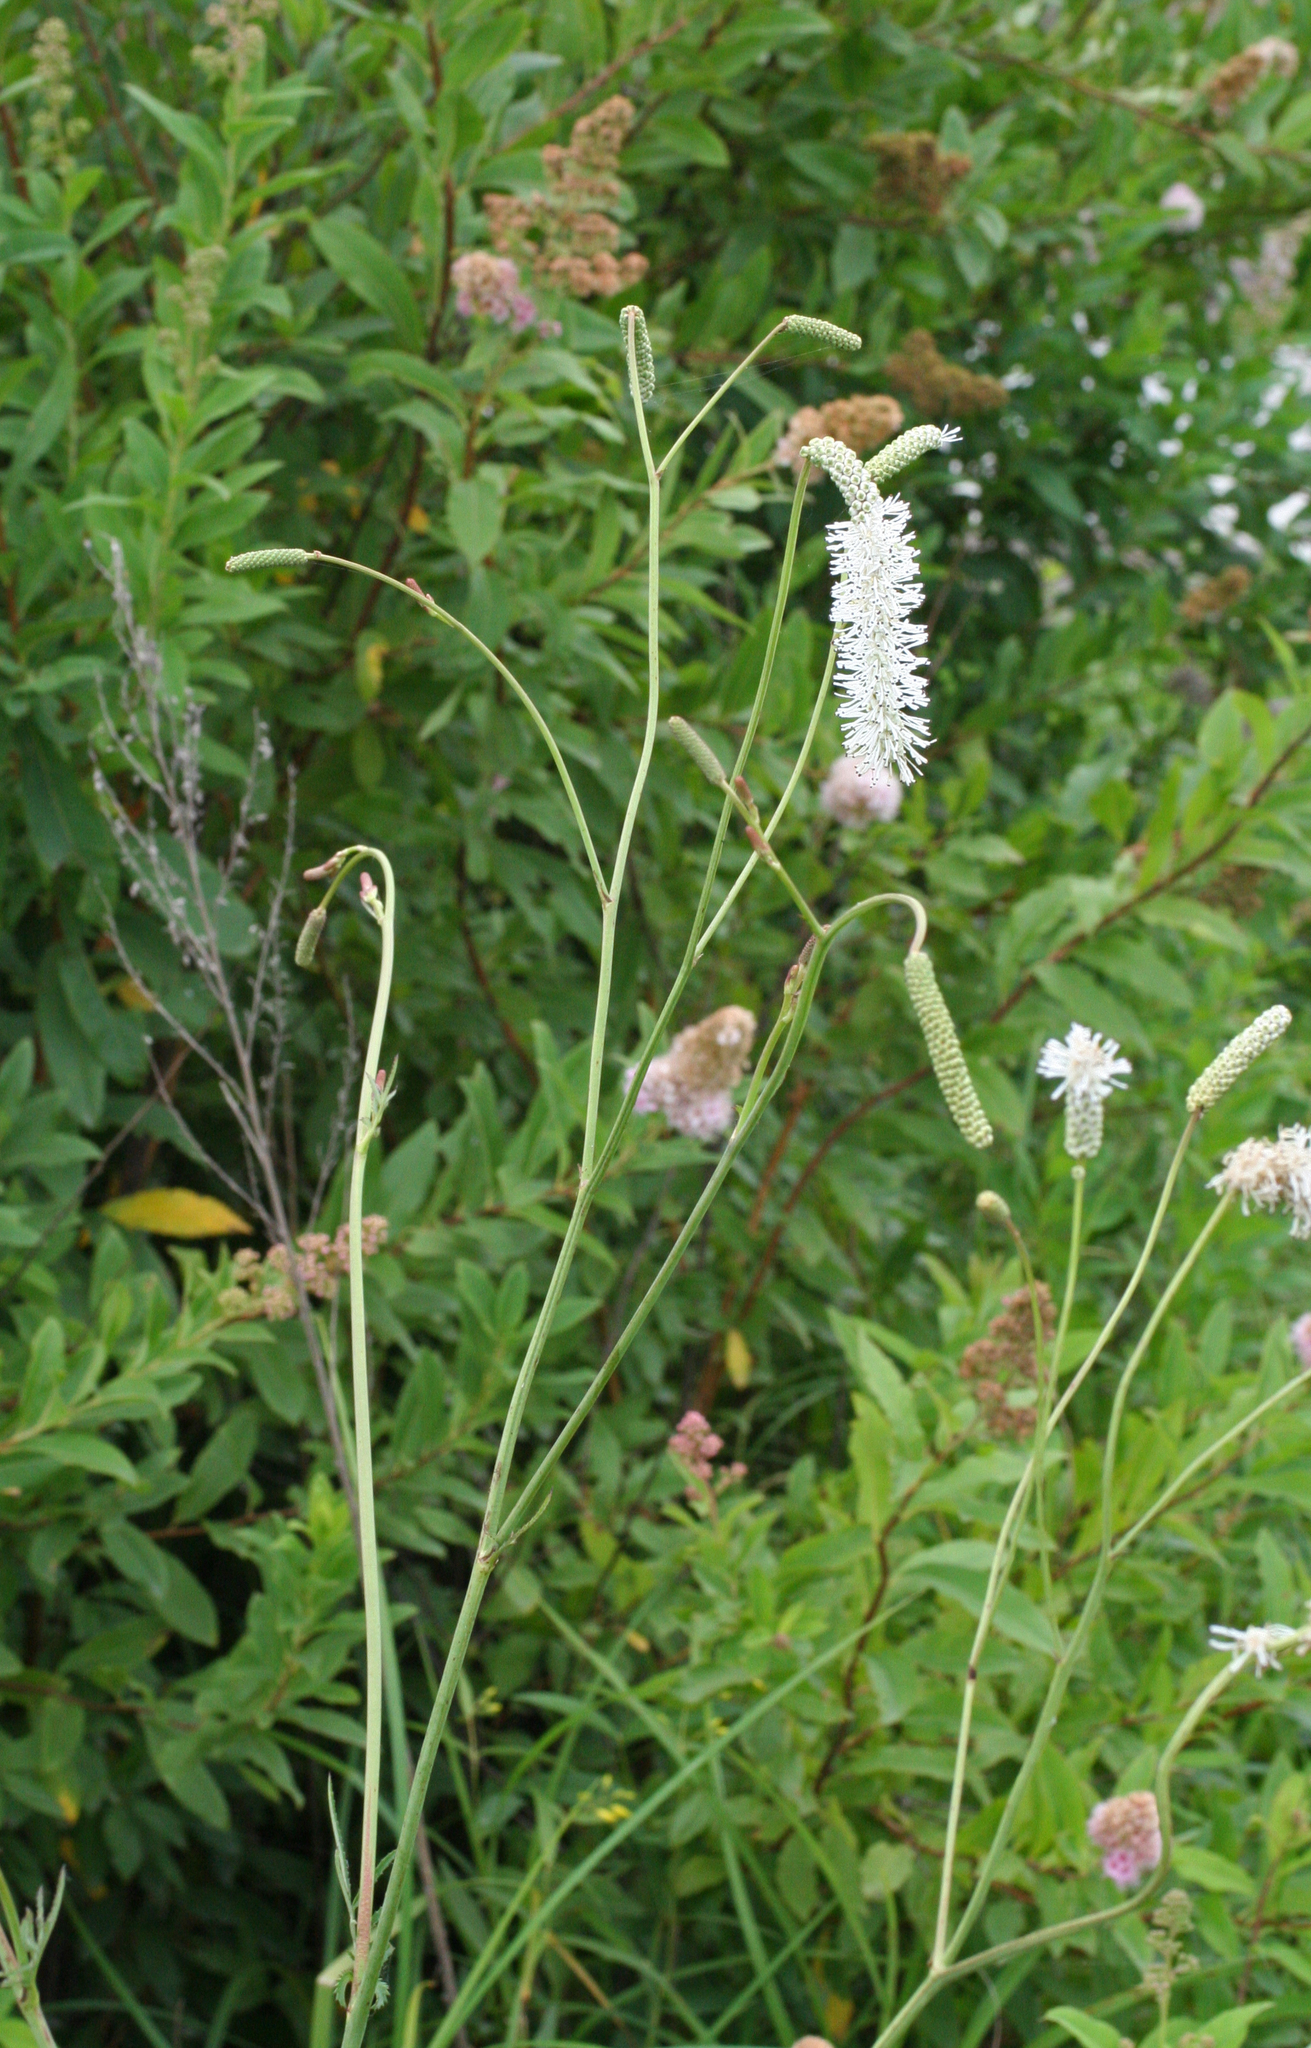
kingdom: Plantae
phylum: Tracheophyta
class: Magnoliopsida
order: Rosales
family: Rosaceae
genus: Poterium
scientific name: Poterium tenuifolium
